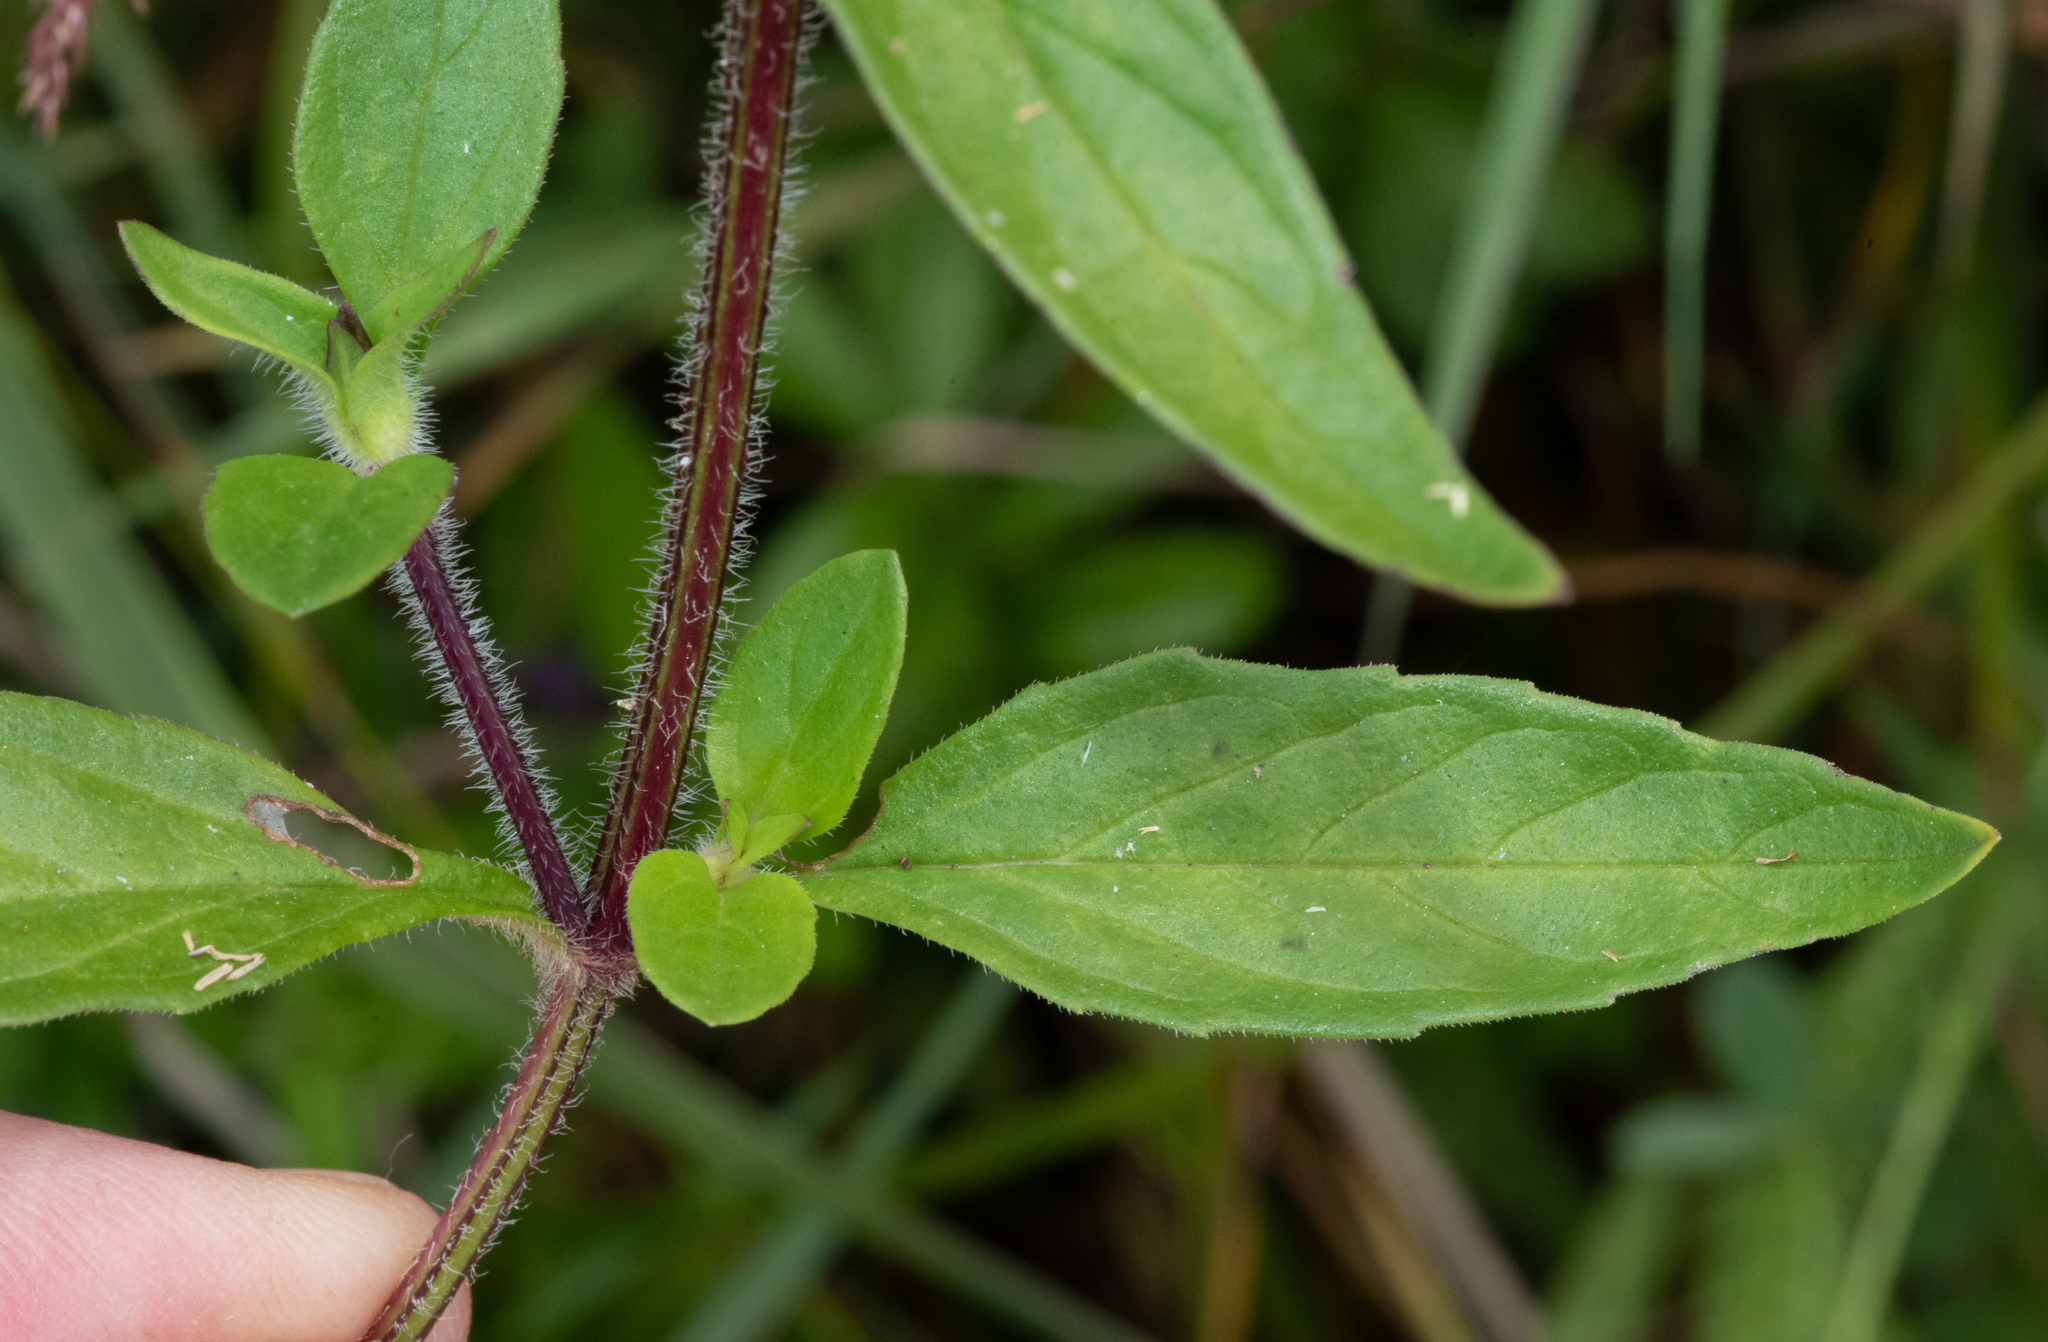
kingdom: Plantae
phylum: Tracheophyta
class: Magnoliopsida
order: Lamiales
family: Lamiaceae
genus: Prunella
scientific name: Prunella vulgaris
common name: Heal-all
